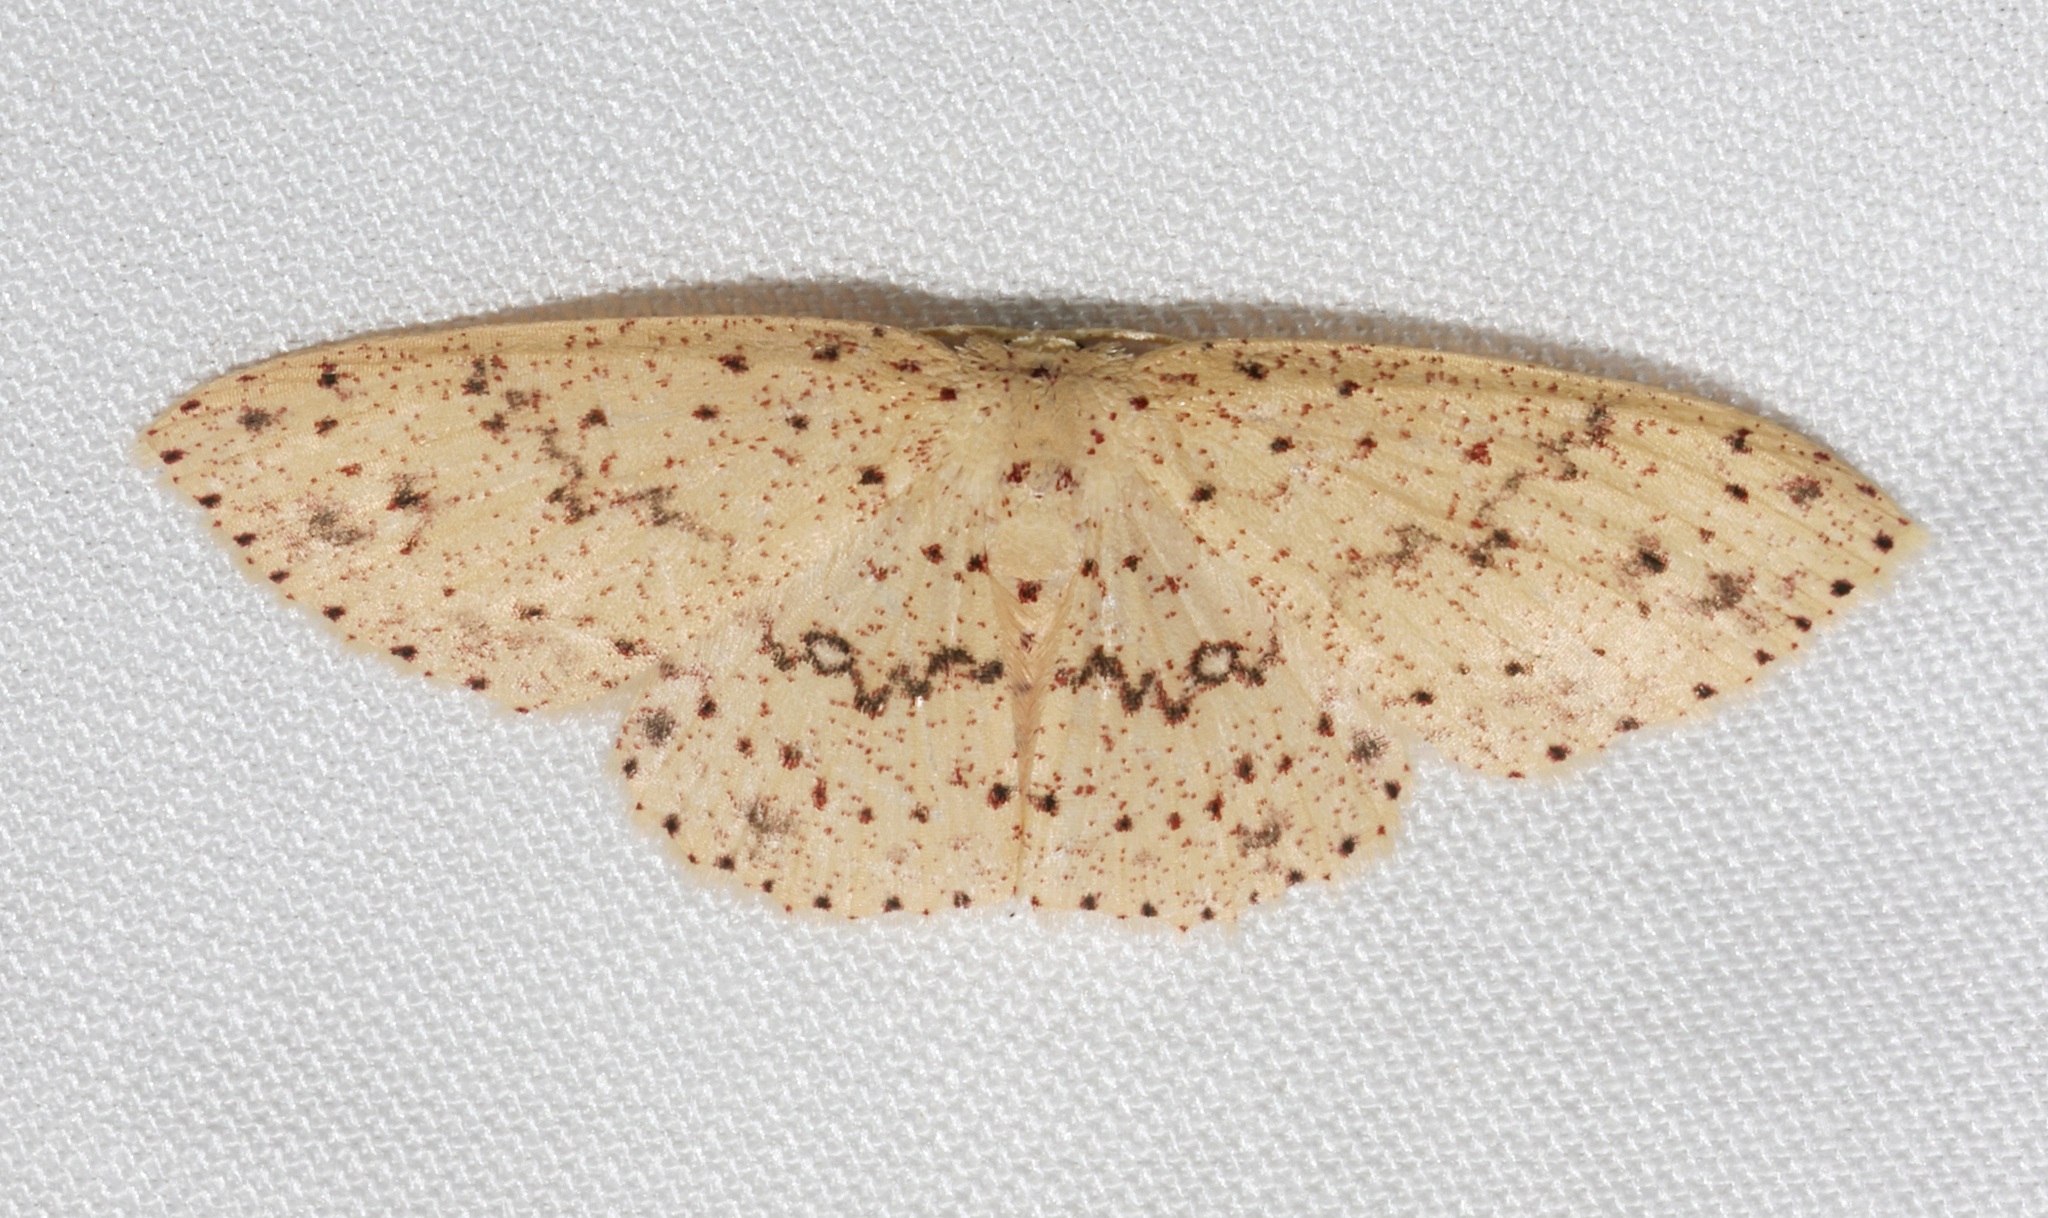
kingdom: Animalia
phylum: Arthropoda
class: Insecta
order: Lepidoptera
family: Geometridae
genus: Perixera
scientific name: Perixera decretarioides
